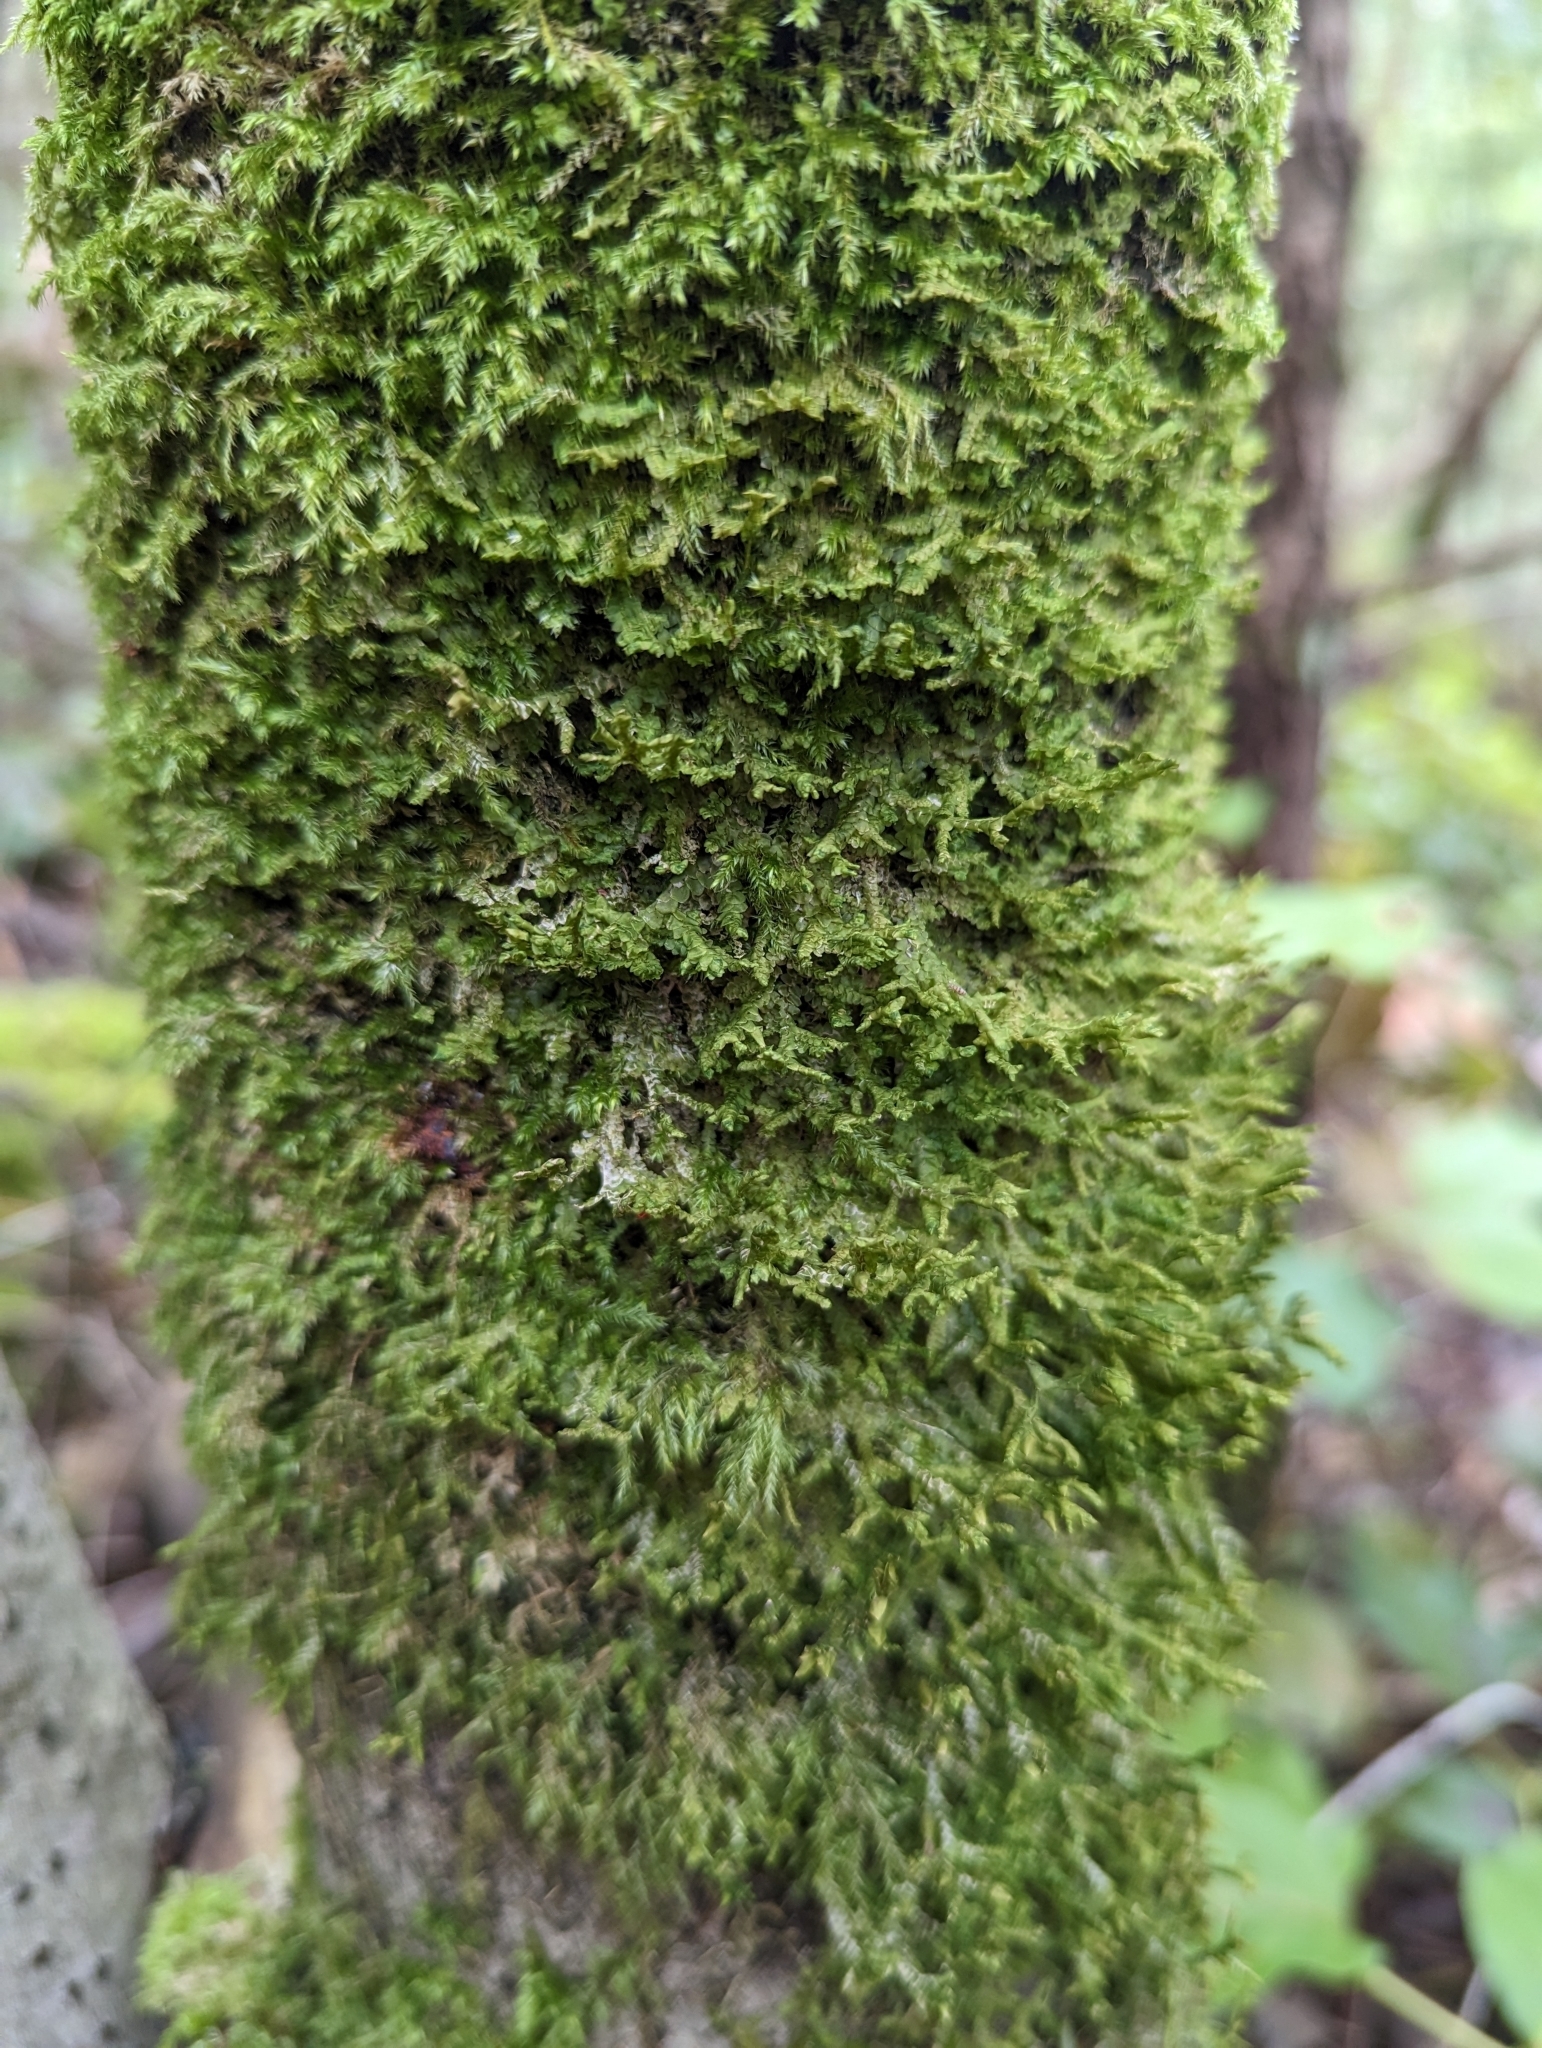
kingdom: Plantae
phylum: Marchantiophyta
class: Jungermanniopsida
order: Porellales
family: Porellaceae
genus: Porella
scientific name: Porella cordaeana
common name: Cliff scalewort
